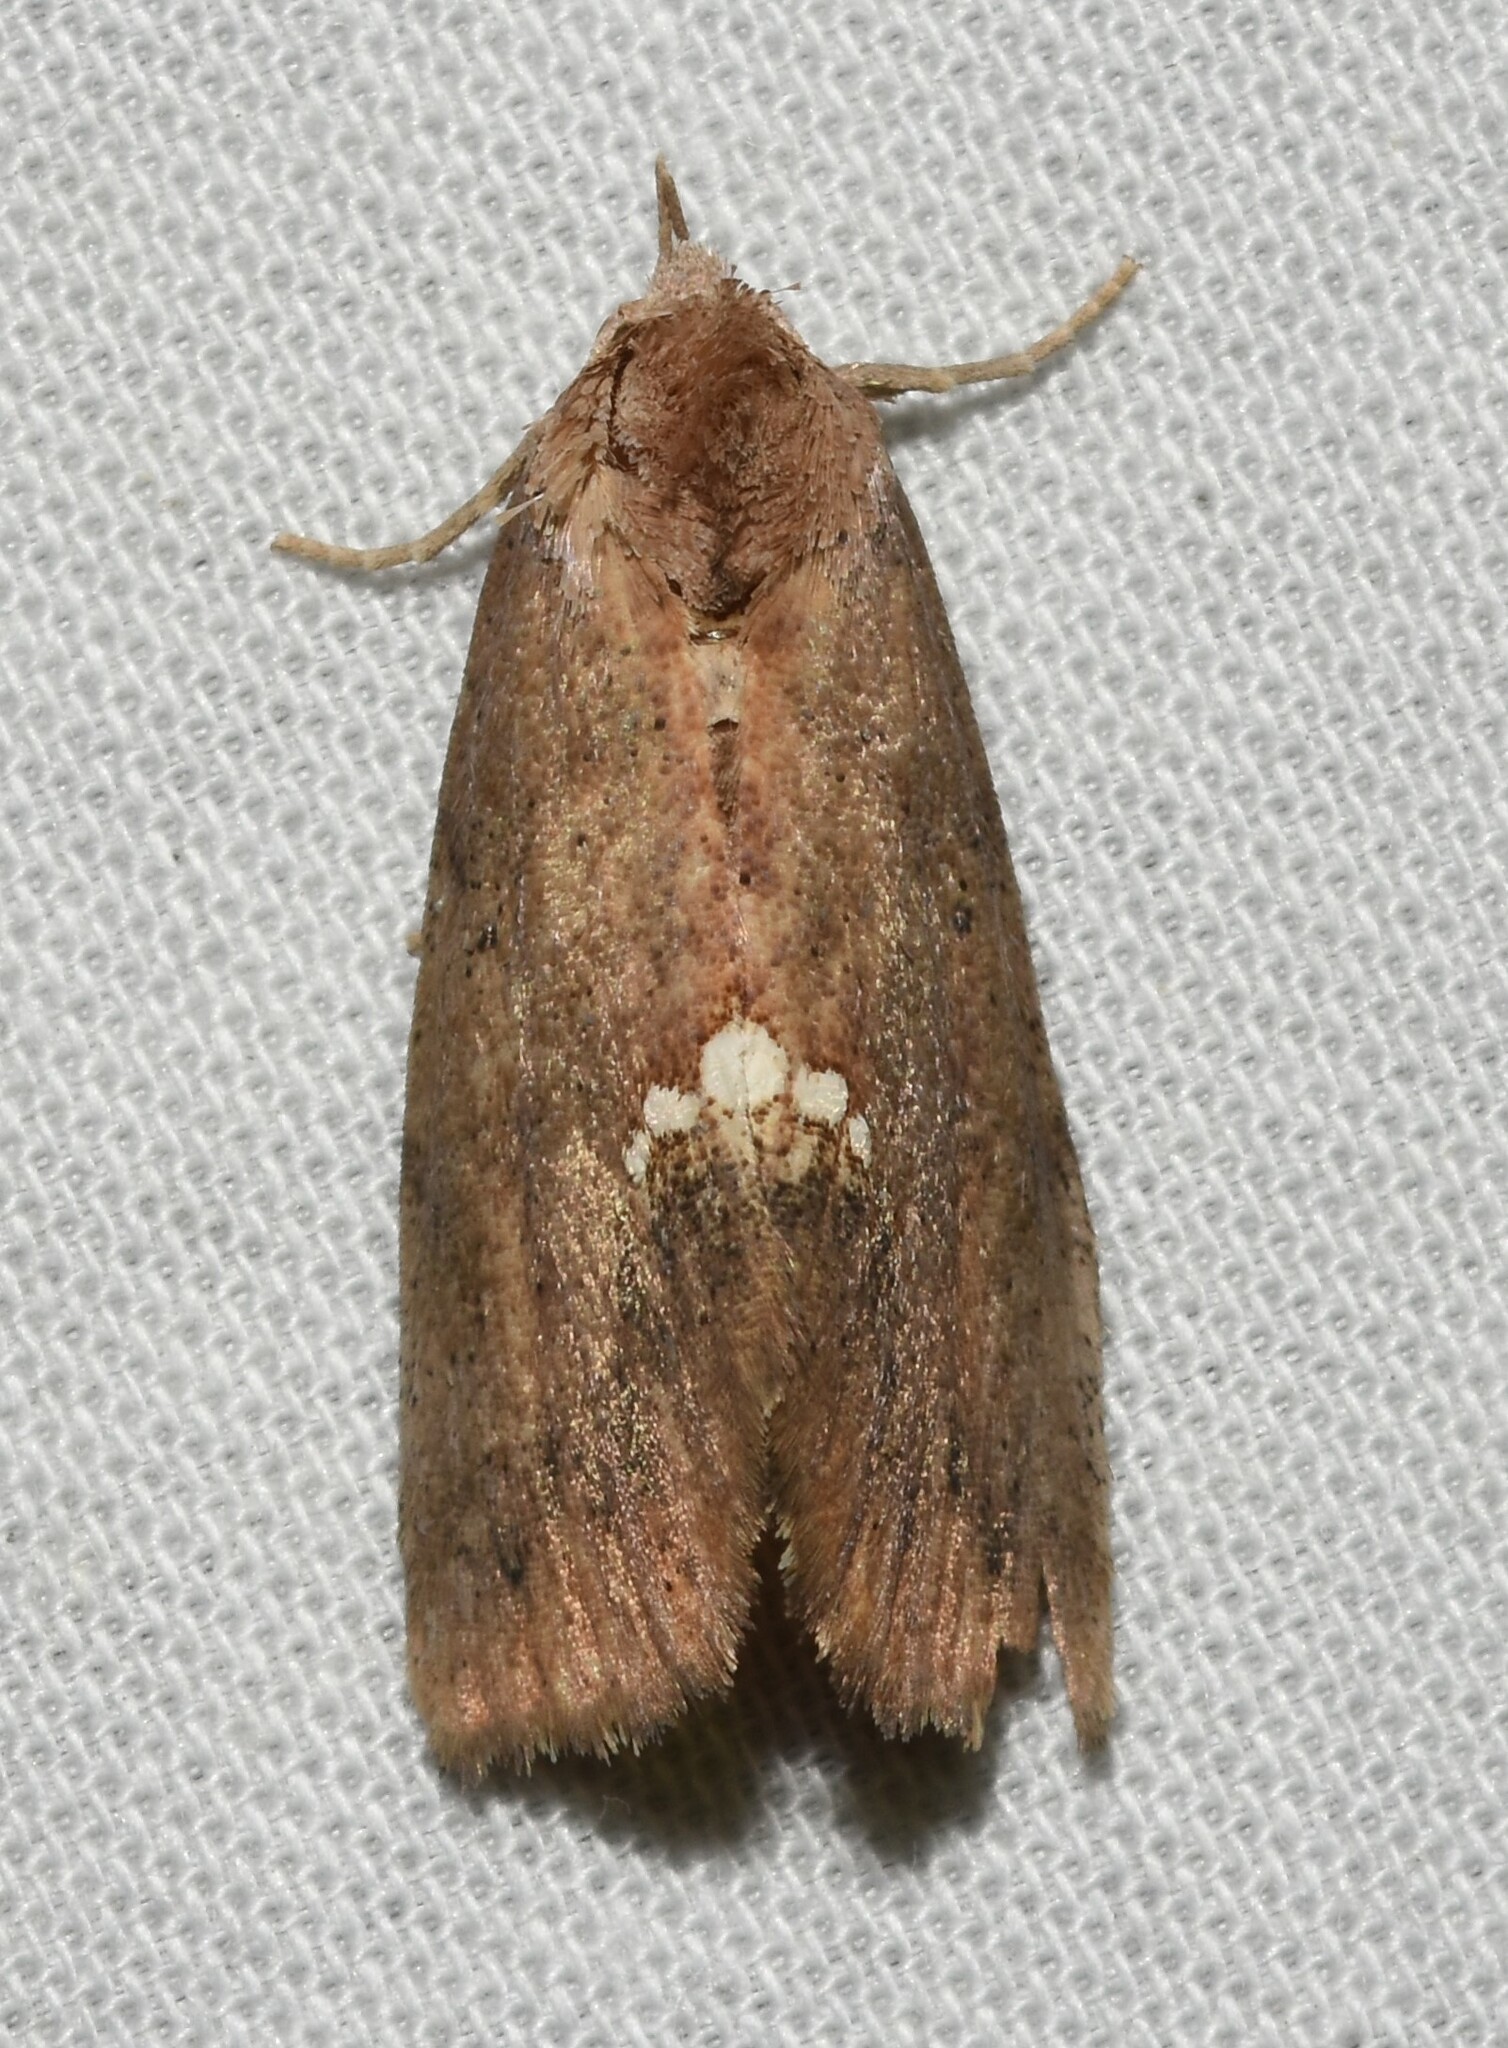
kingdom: Animalia
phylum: Arthropoda
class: Insecta
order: Lepidoptera
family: Erebidae
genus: Hypsoropha
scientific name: Hypsoropha hormos
